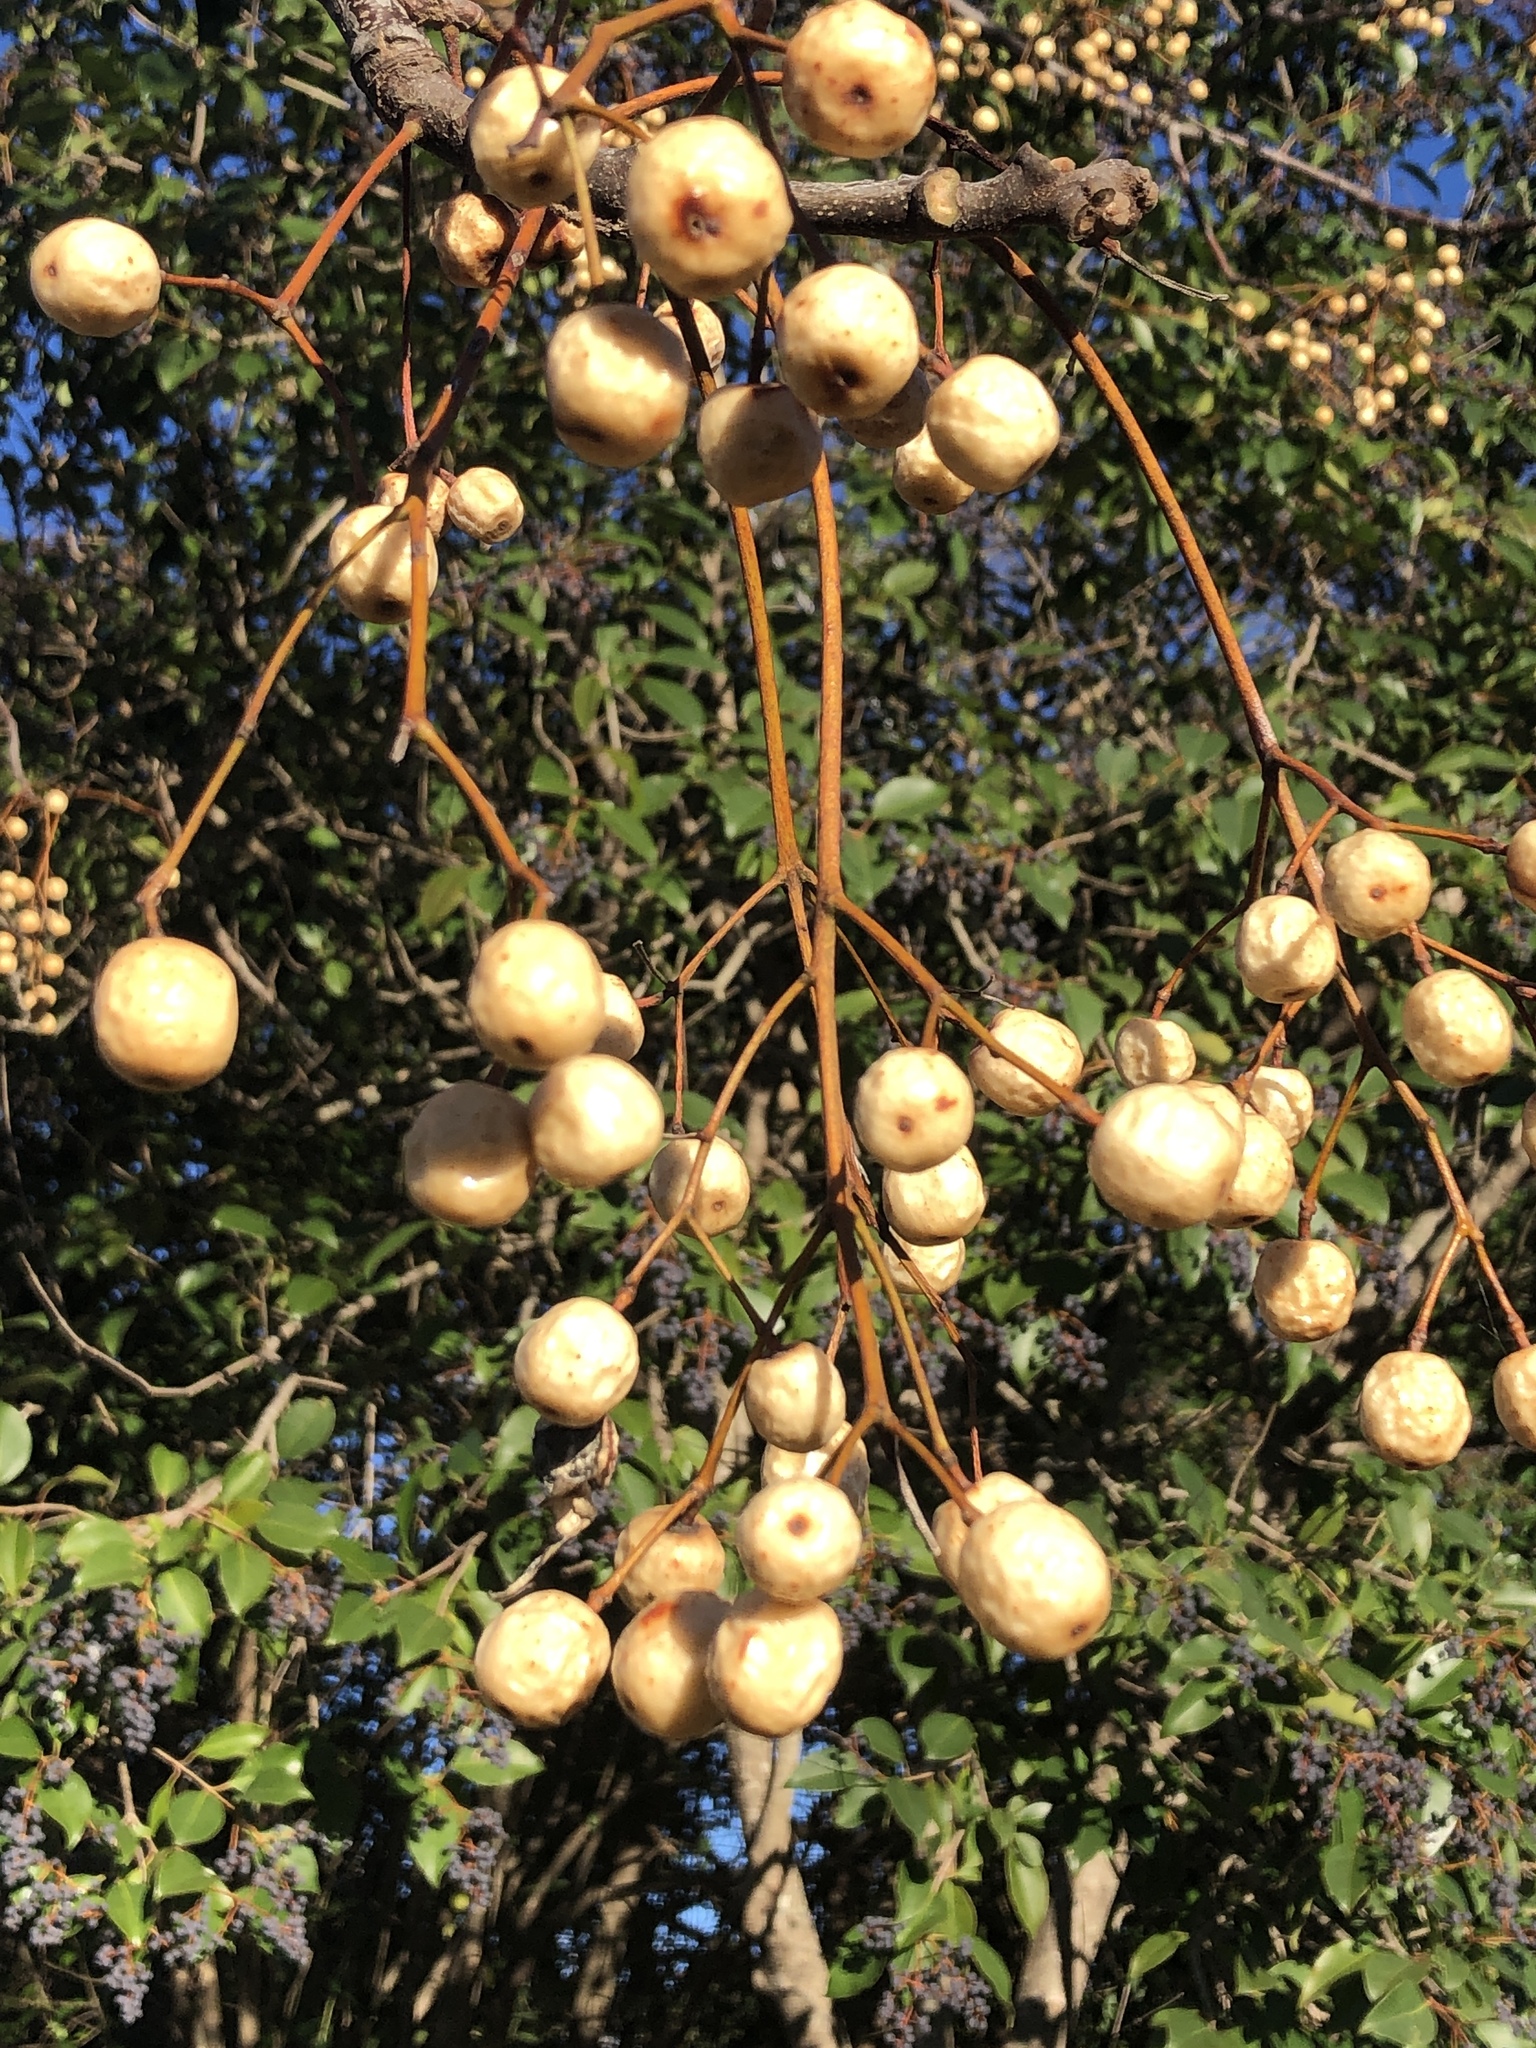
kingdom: Plantae
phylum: Tracheophyta
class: Magnoliopsida
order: Sapindales
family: Meliaceae
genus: Melia
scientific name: Melia azedarach
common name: Chinaberrytree
